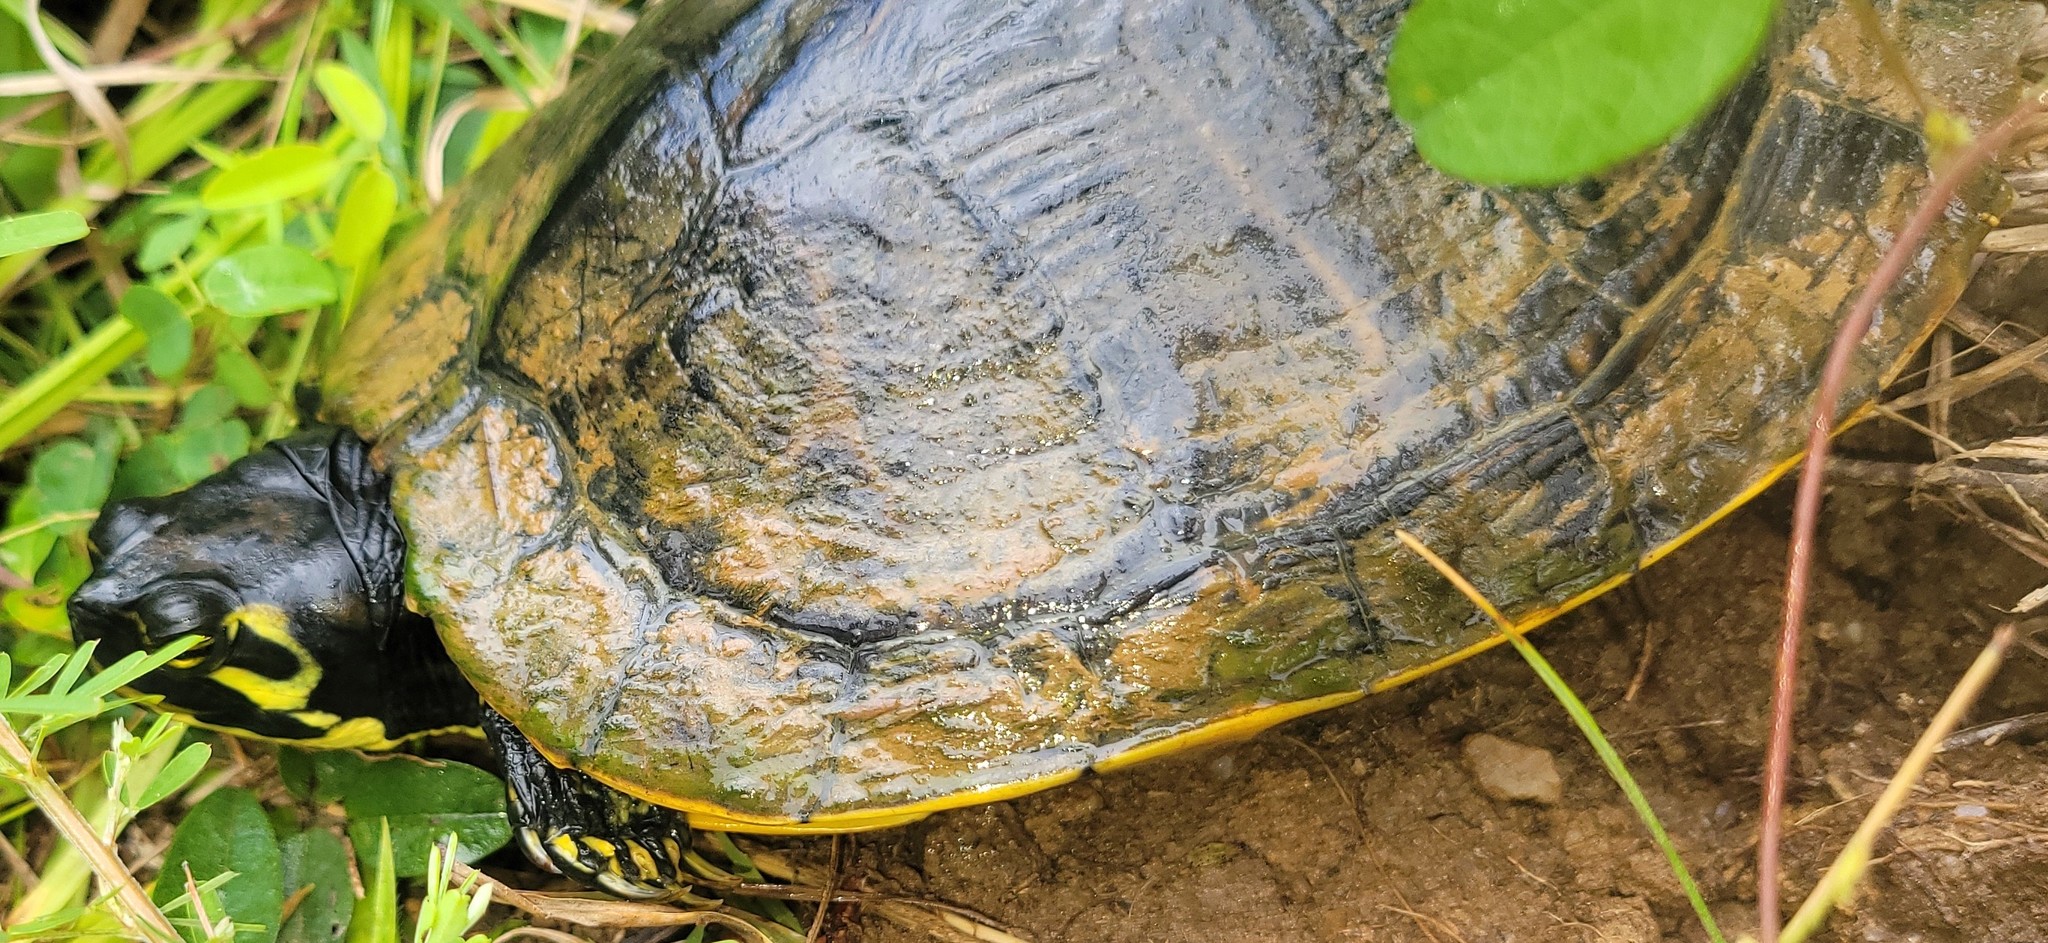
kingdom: Animalia
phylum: Chordata
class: Testudines
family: Emydidae
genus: Trachemys
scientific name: Trachemys scripta
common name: Slider
